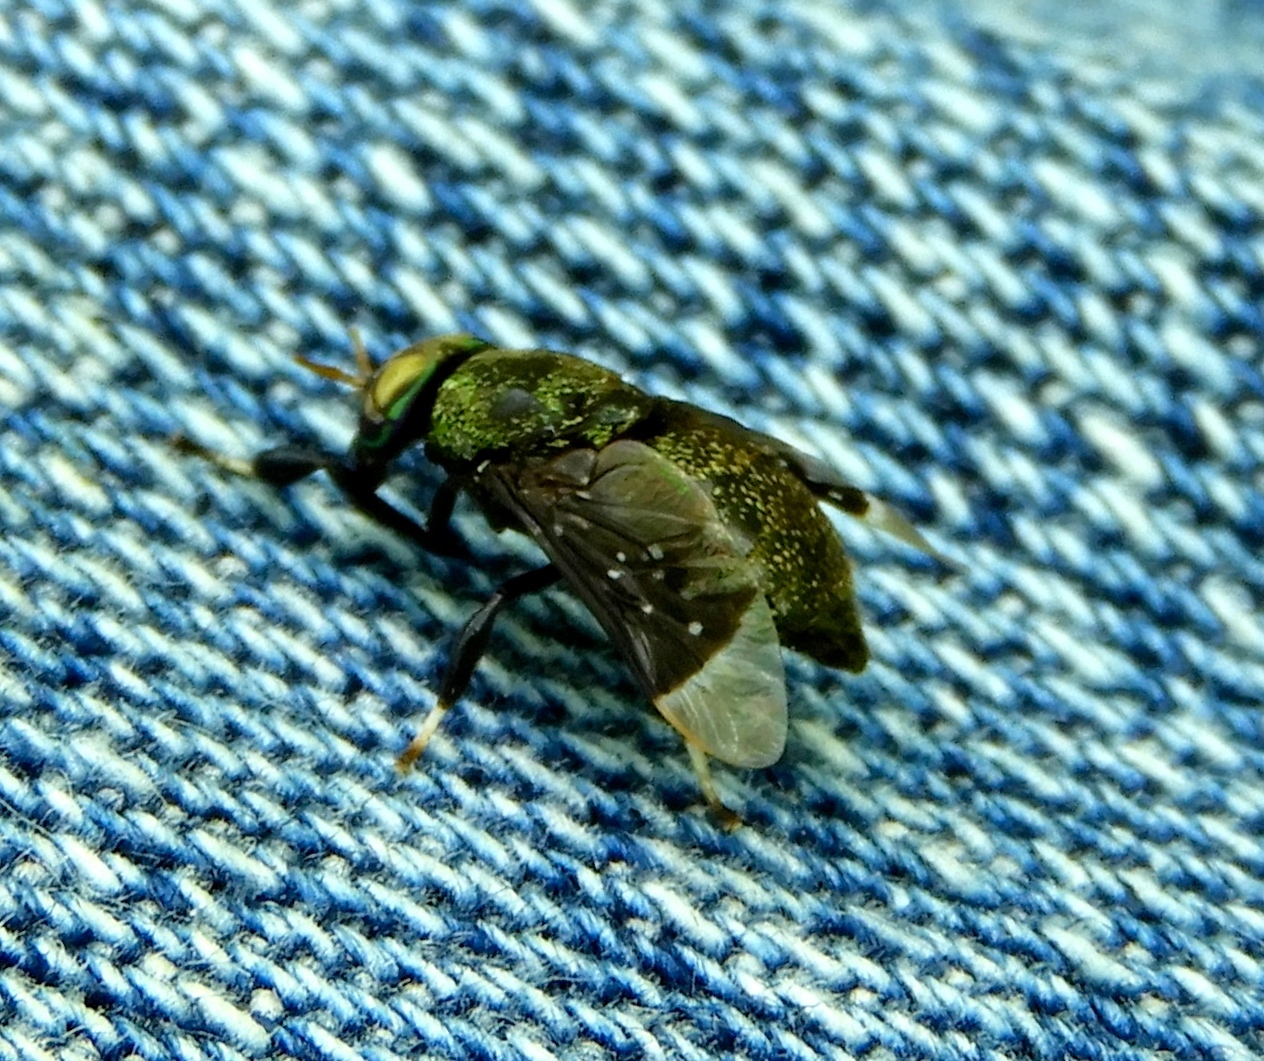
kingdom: Animalia
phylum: Arthropoda
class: Insecta
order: Diptera
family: Tabanidae
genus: Lepiselaga
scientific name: Lepiselaga crassipes
